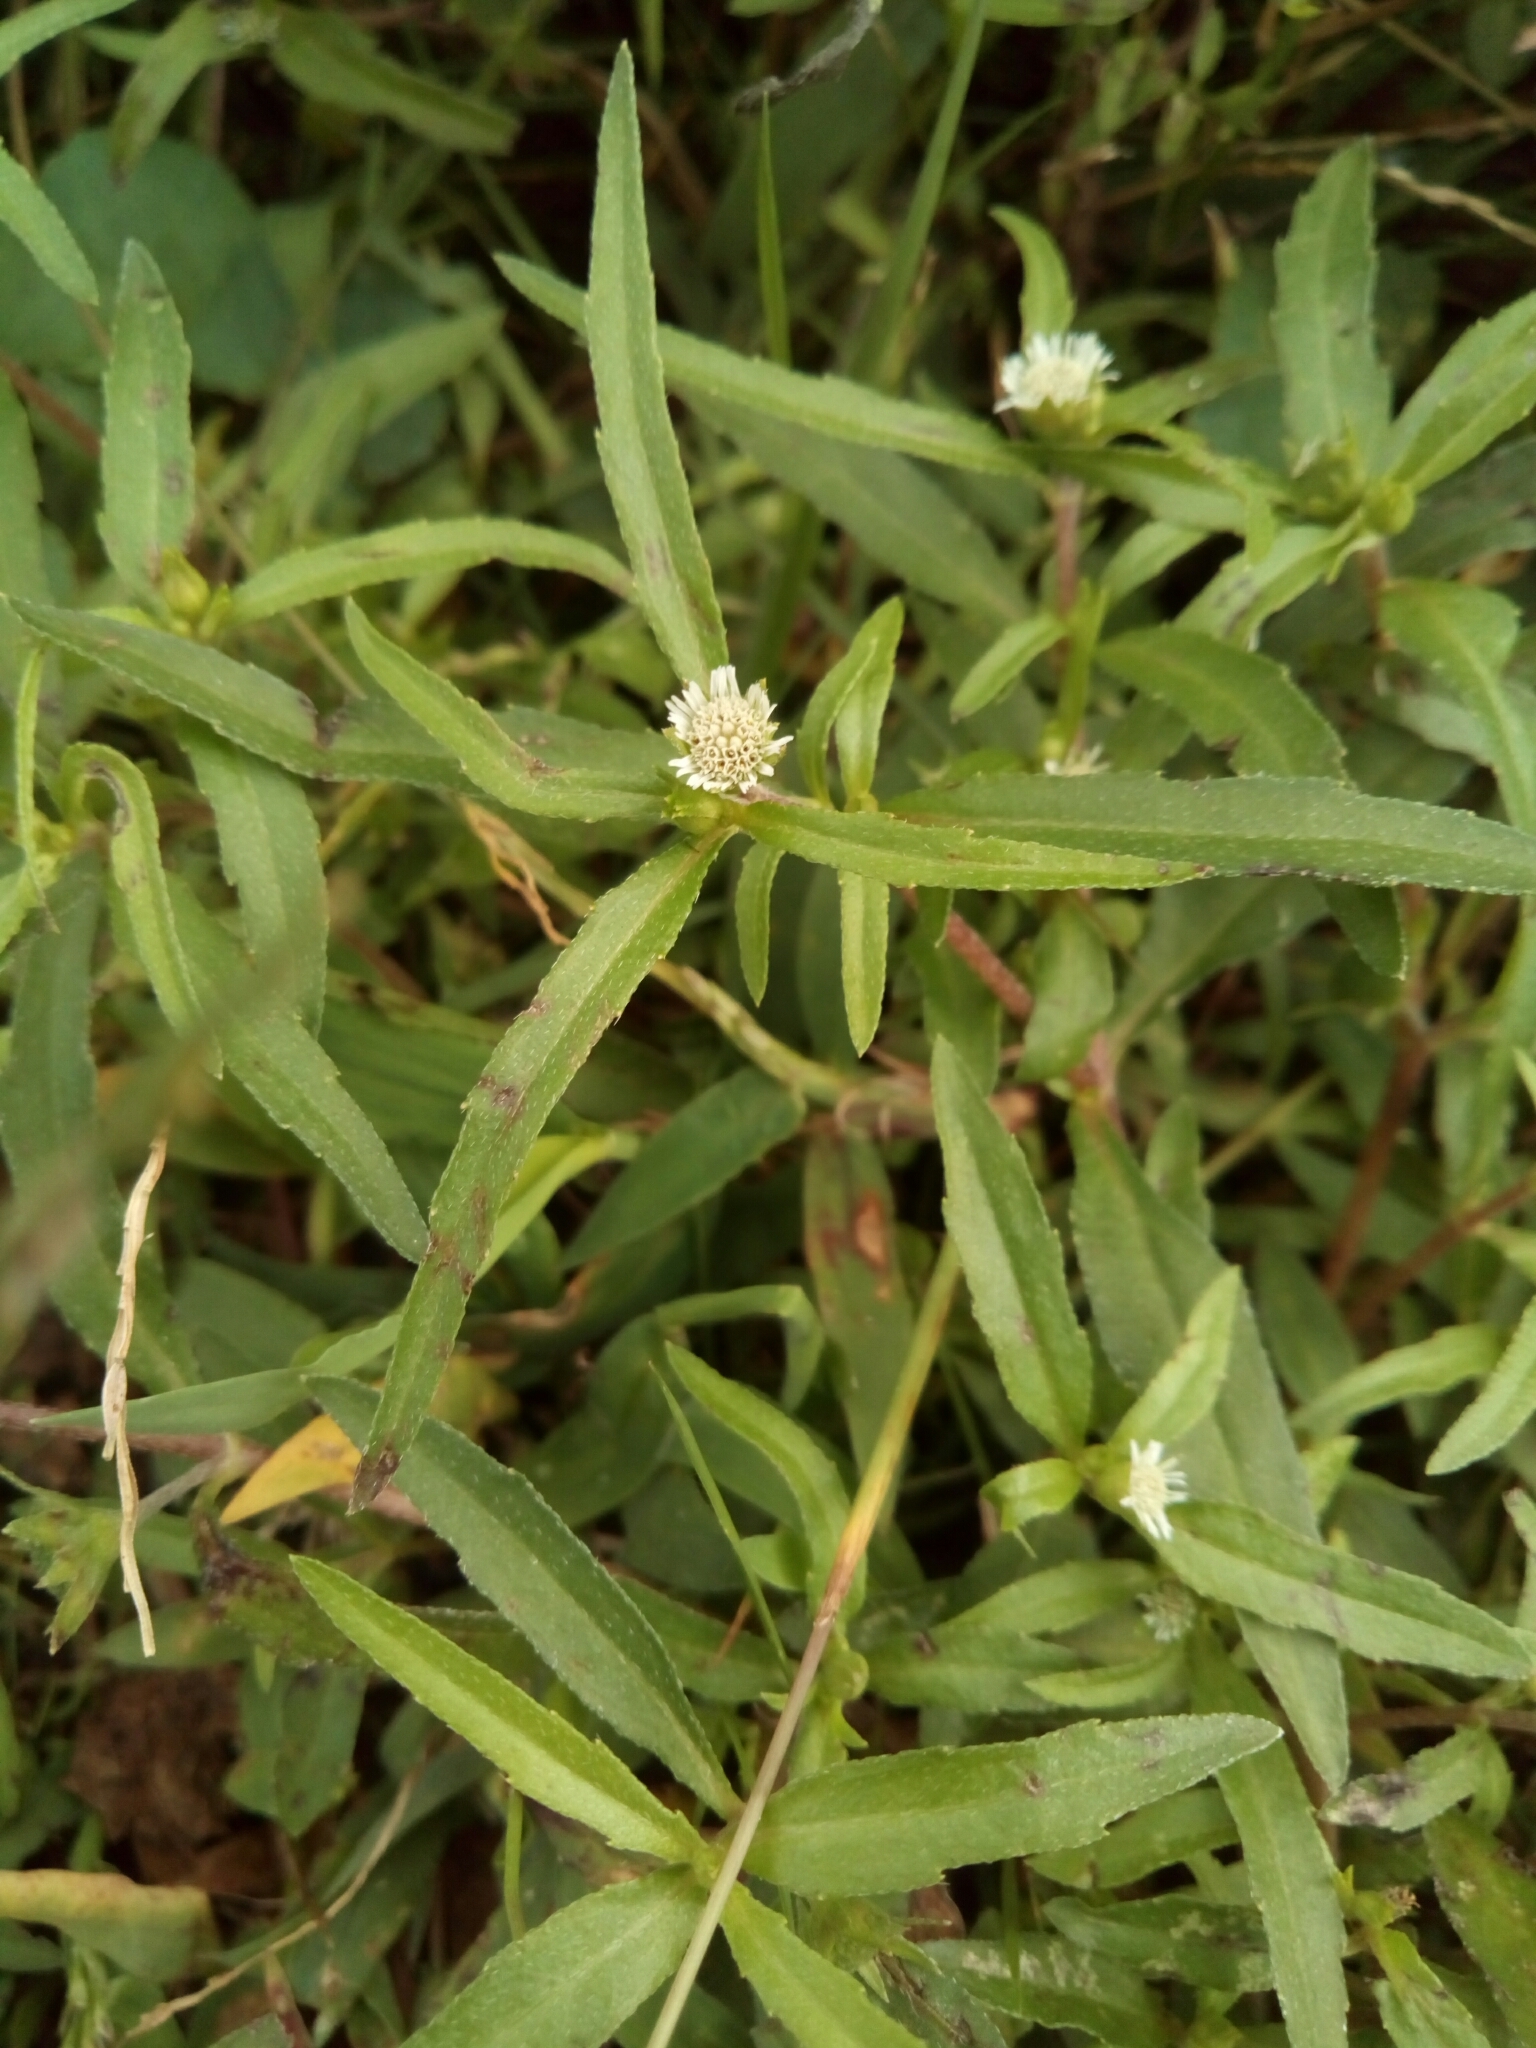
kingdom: Plantae
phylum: Tracheophyta
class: Magnoliopsida
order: Asterales
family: Asteraceae
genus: Eclipta
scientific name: Eclipta prostrata
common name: False daisy
